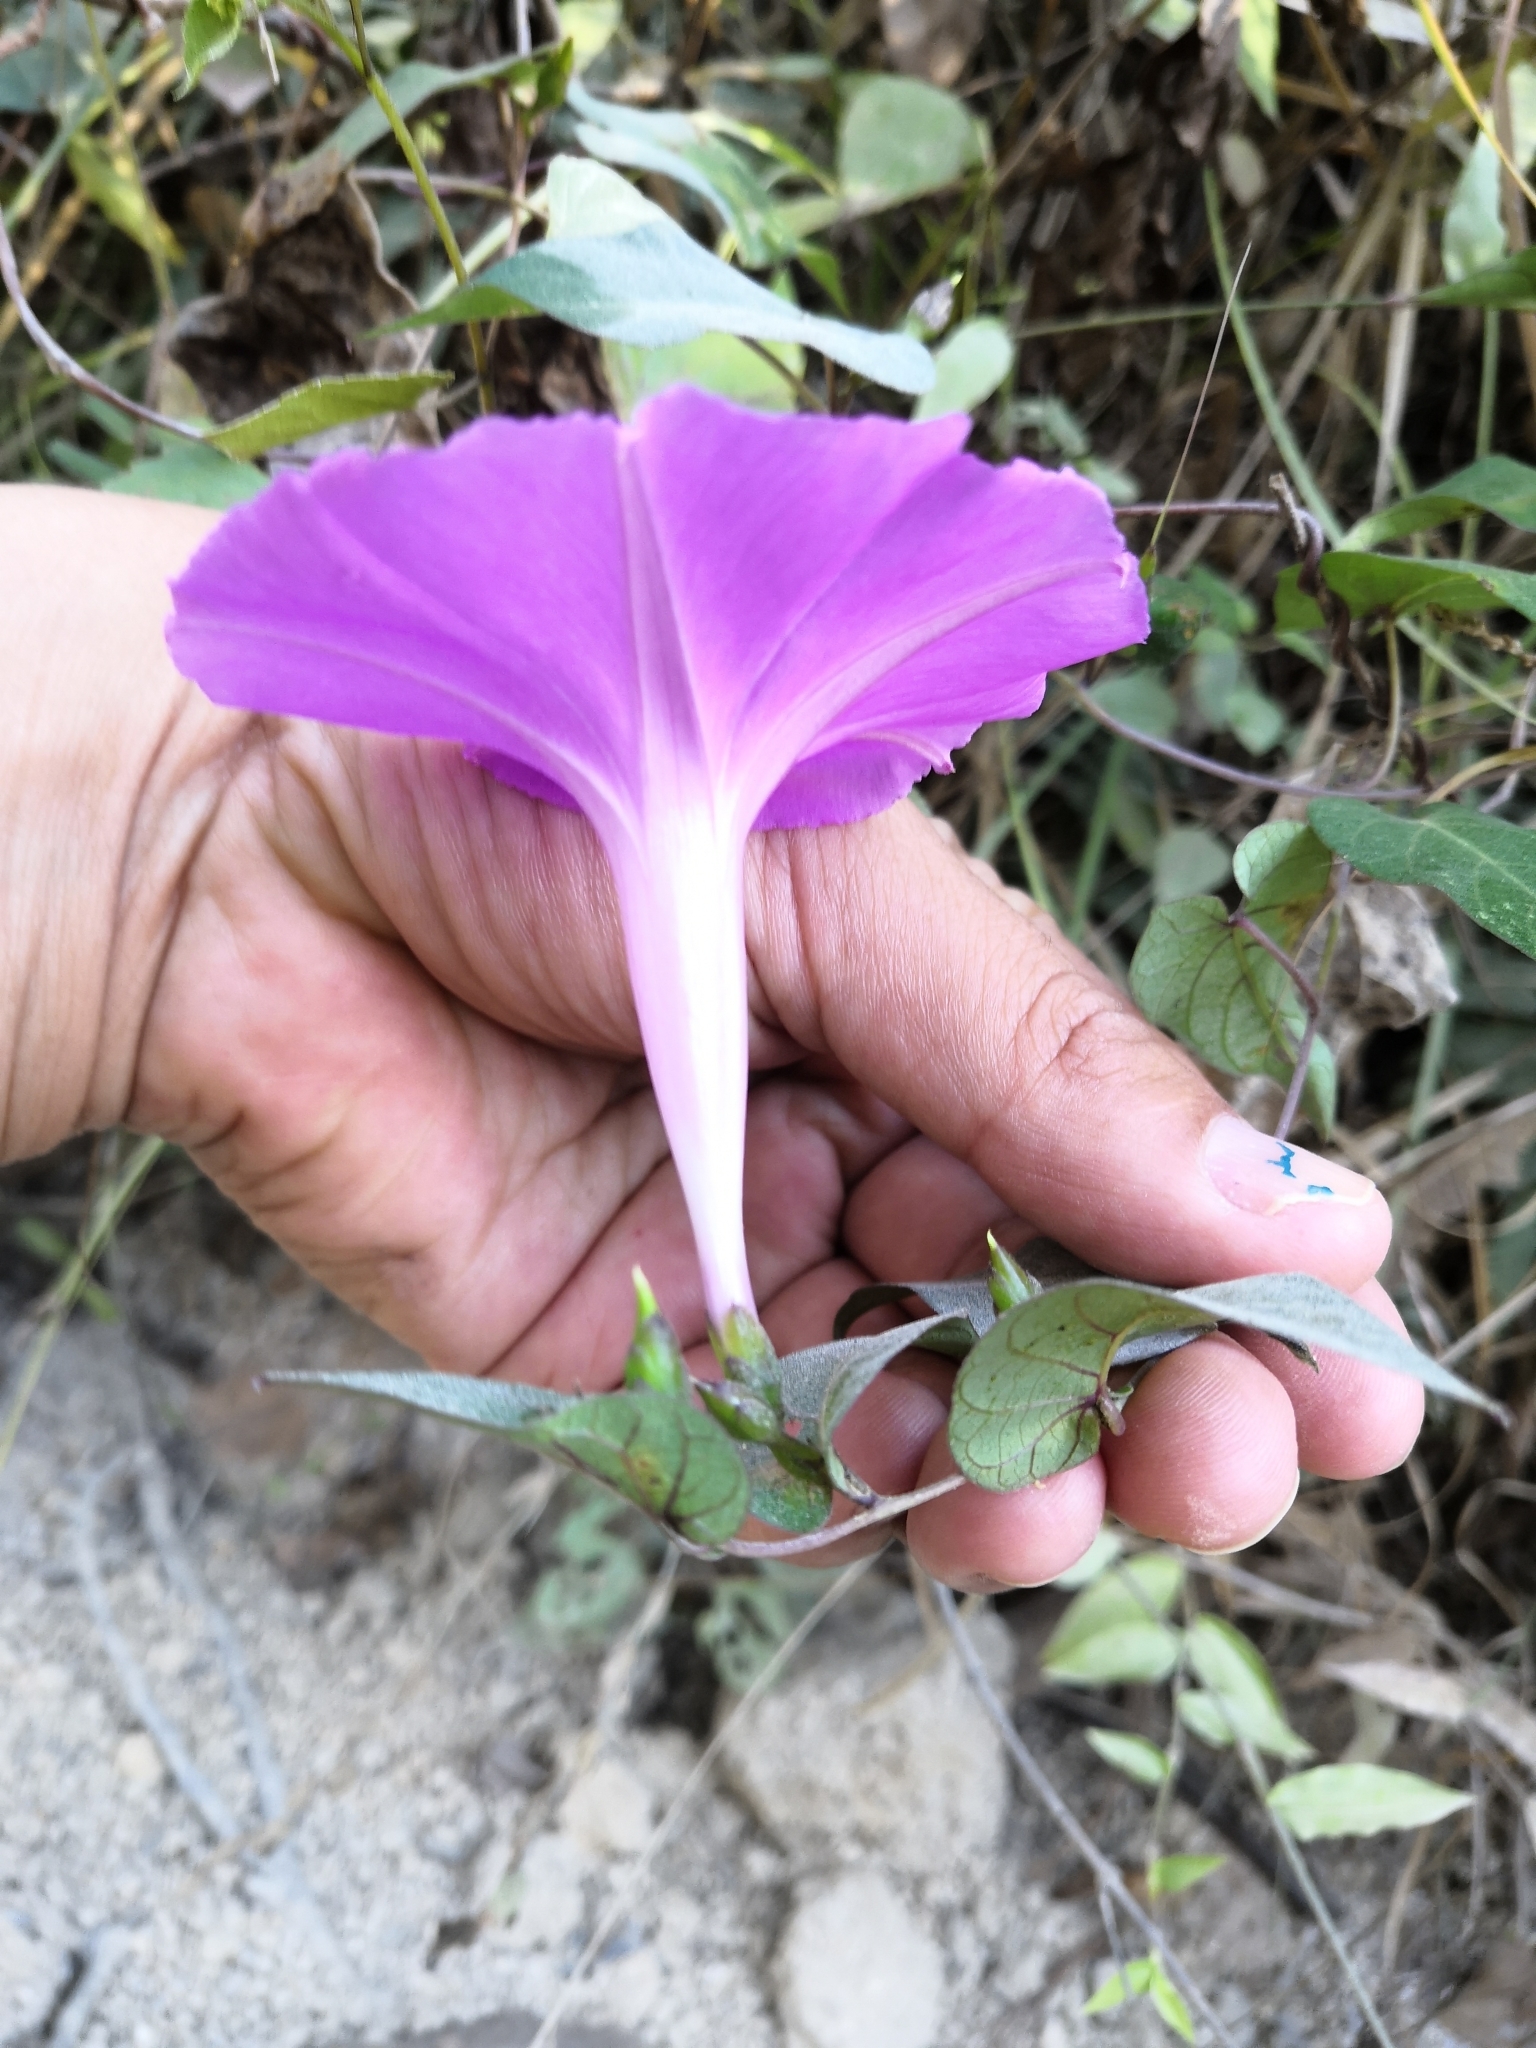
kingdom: Plantae
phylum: Tracheophyta
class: Magnoliopsida
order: Solanales
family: Convolvulaceae
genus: Ipomoea
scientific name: Ipomoea seducta
